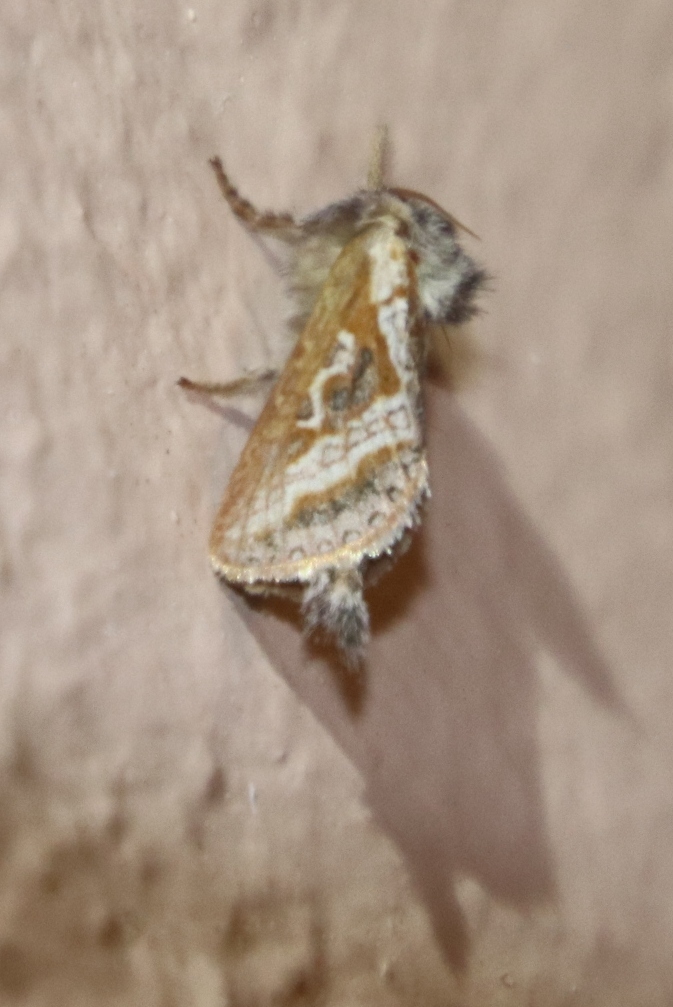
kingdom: Animalia
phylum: Arthropoda
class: Insecta
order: Lepidoptera
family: Hepialidae
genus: Eudalaca
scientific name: Eudalaca orthocosma
